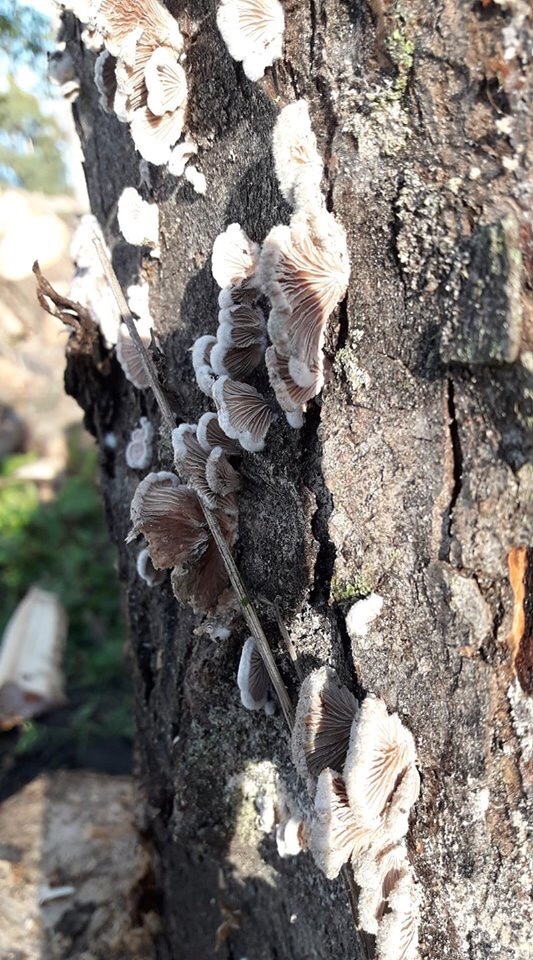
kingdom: Fungi
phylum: Basidiomycota
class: Agaricomycetes
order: Agaricales
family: Schizophyllaceae
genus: Schizophyllum
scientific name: Schizophyllum commune
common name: Common porecrust
